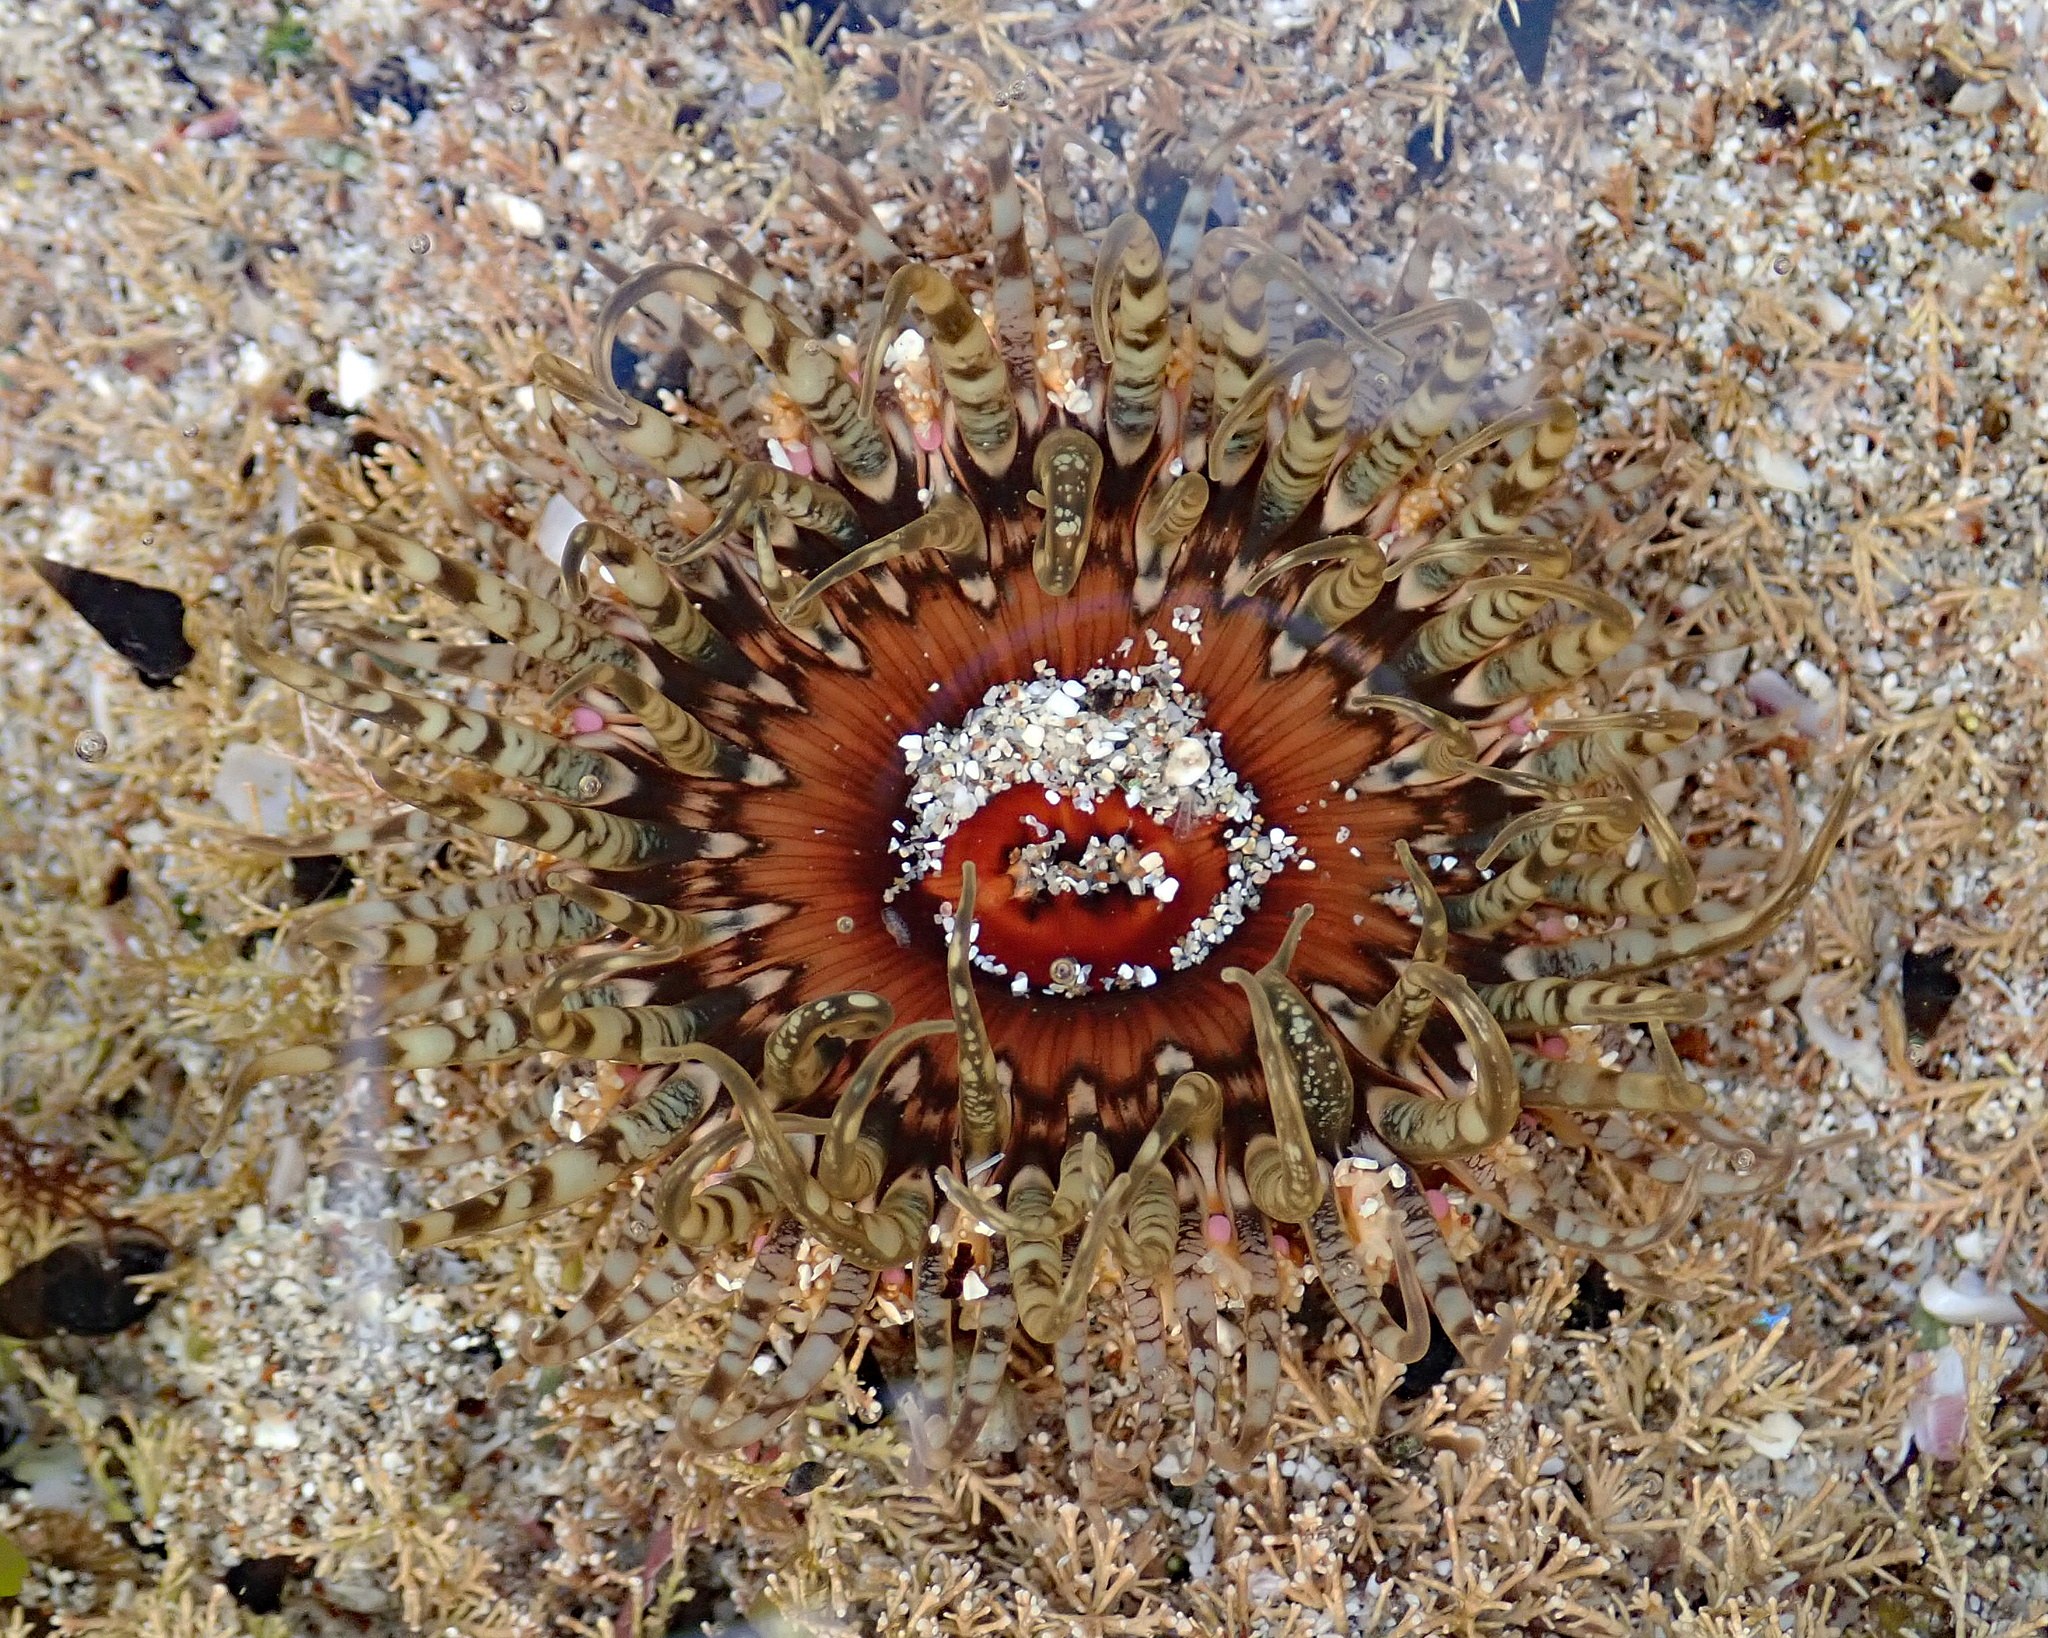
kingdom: Animalia
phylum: Cnidaria
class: Anthozoa
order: Actiniaria
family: Actiniidae
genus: Oulactis
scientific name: Oulactis muscosa
